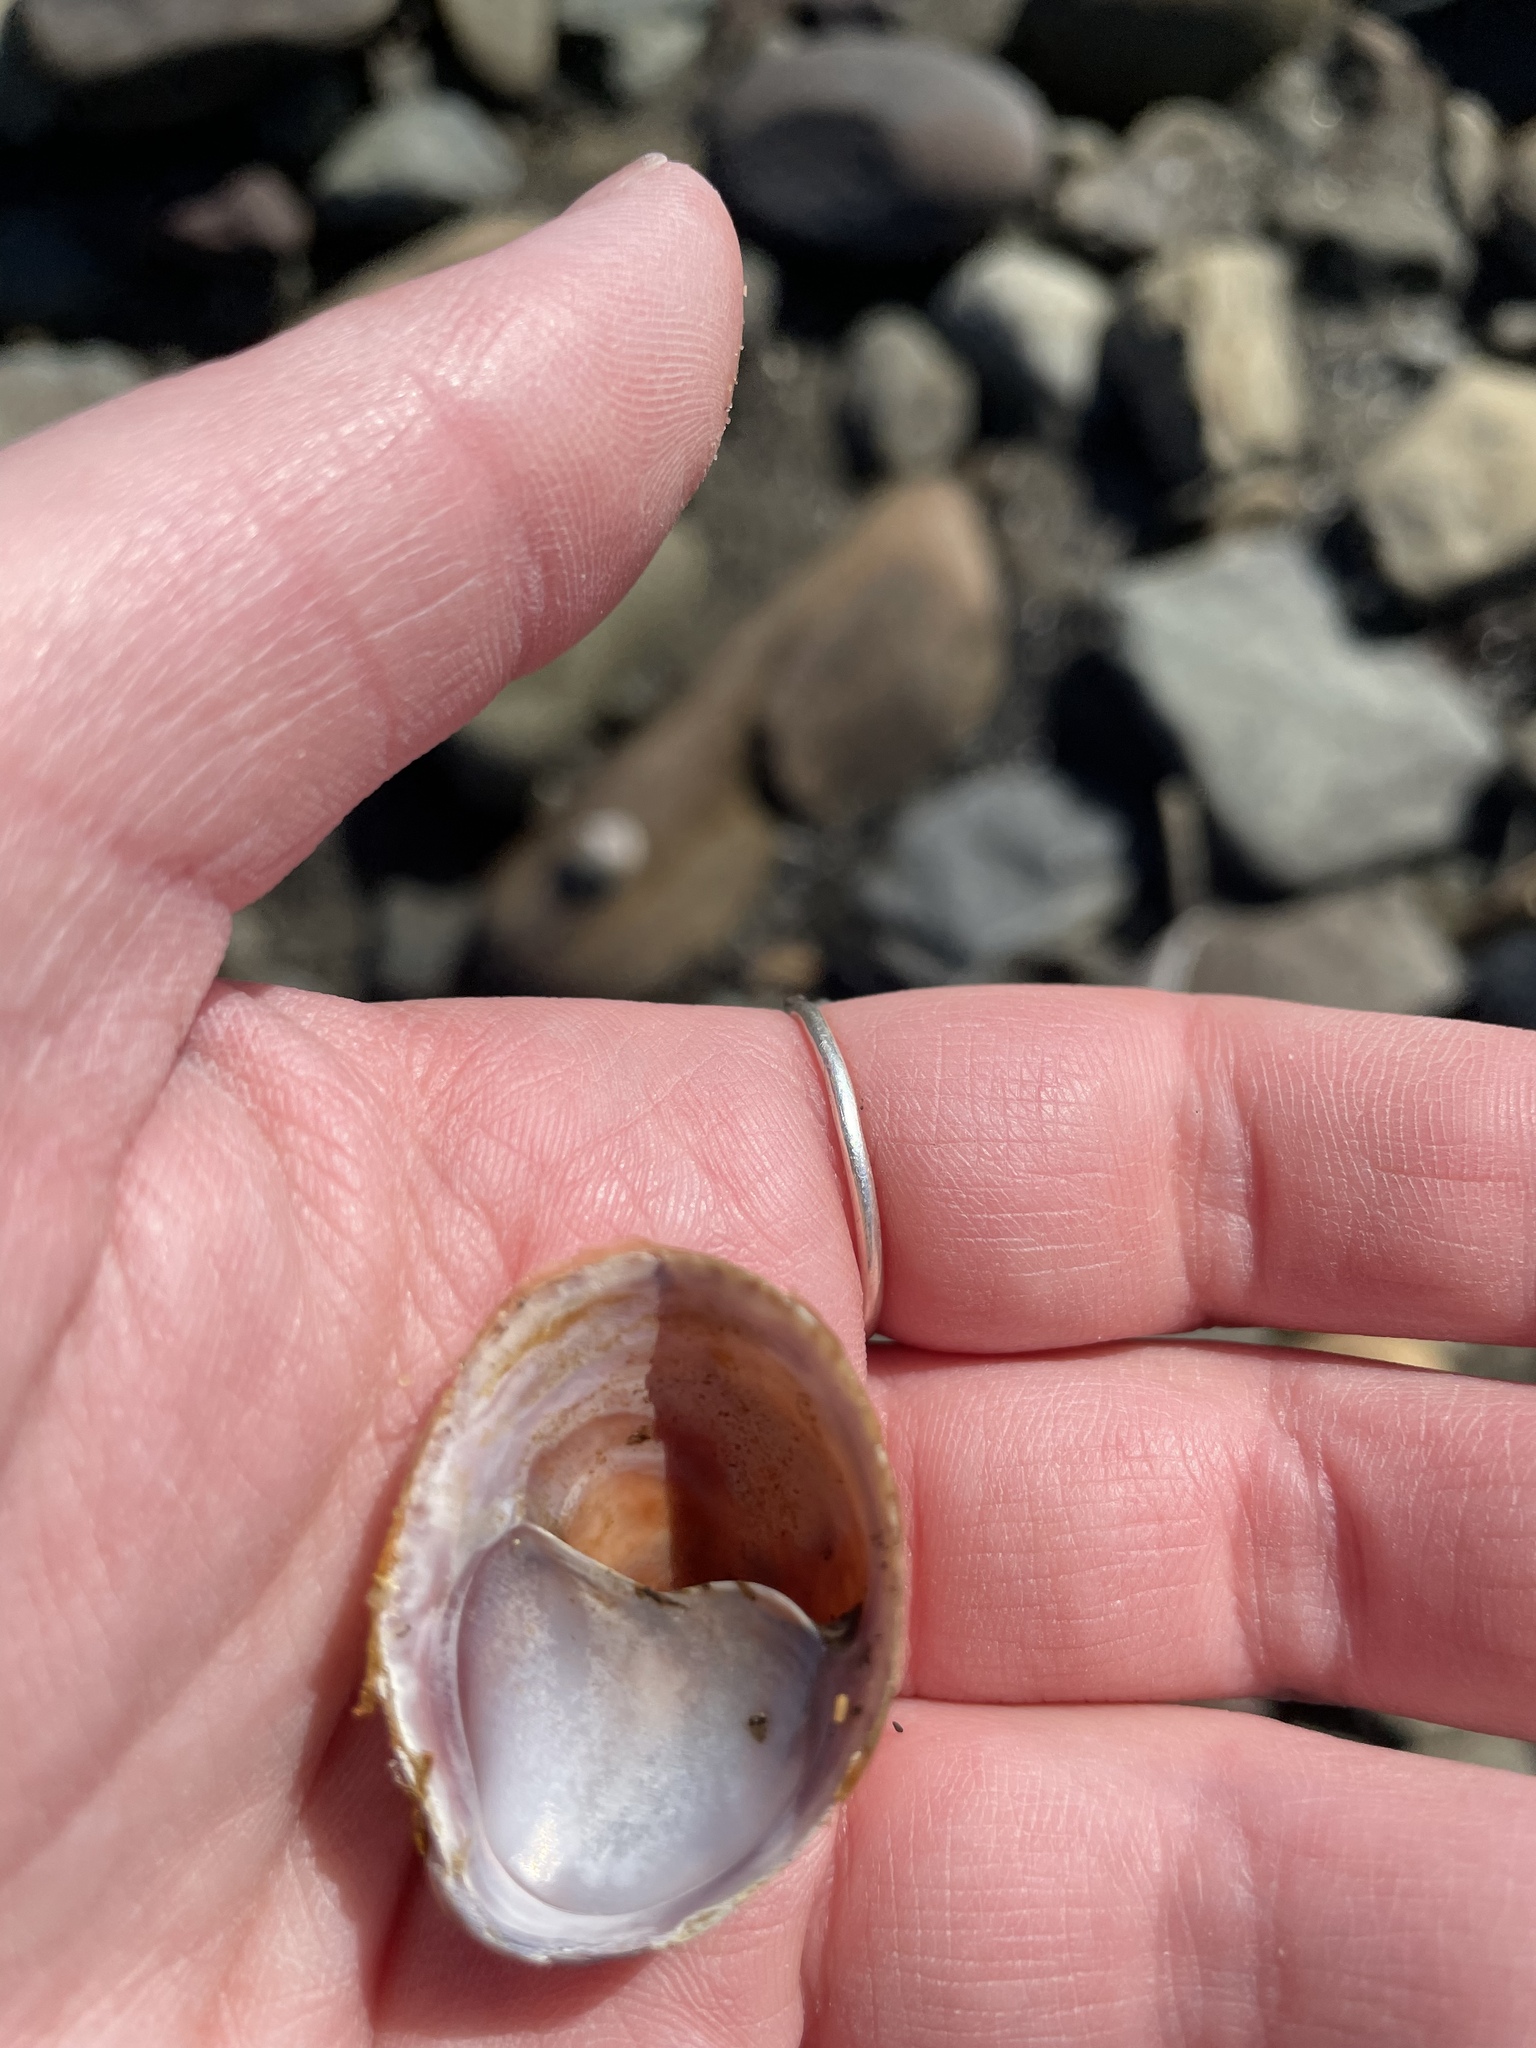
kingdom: Animalia
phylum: Mollusca
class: Gastropoda
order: Littorinimorpha
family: Calyptraeidae
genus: Crepidula
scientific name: Crepidula fornicata
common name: Slipper limpet
